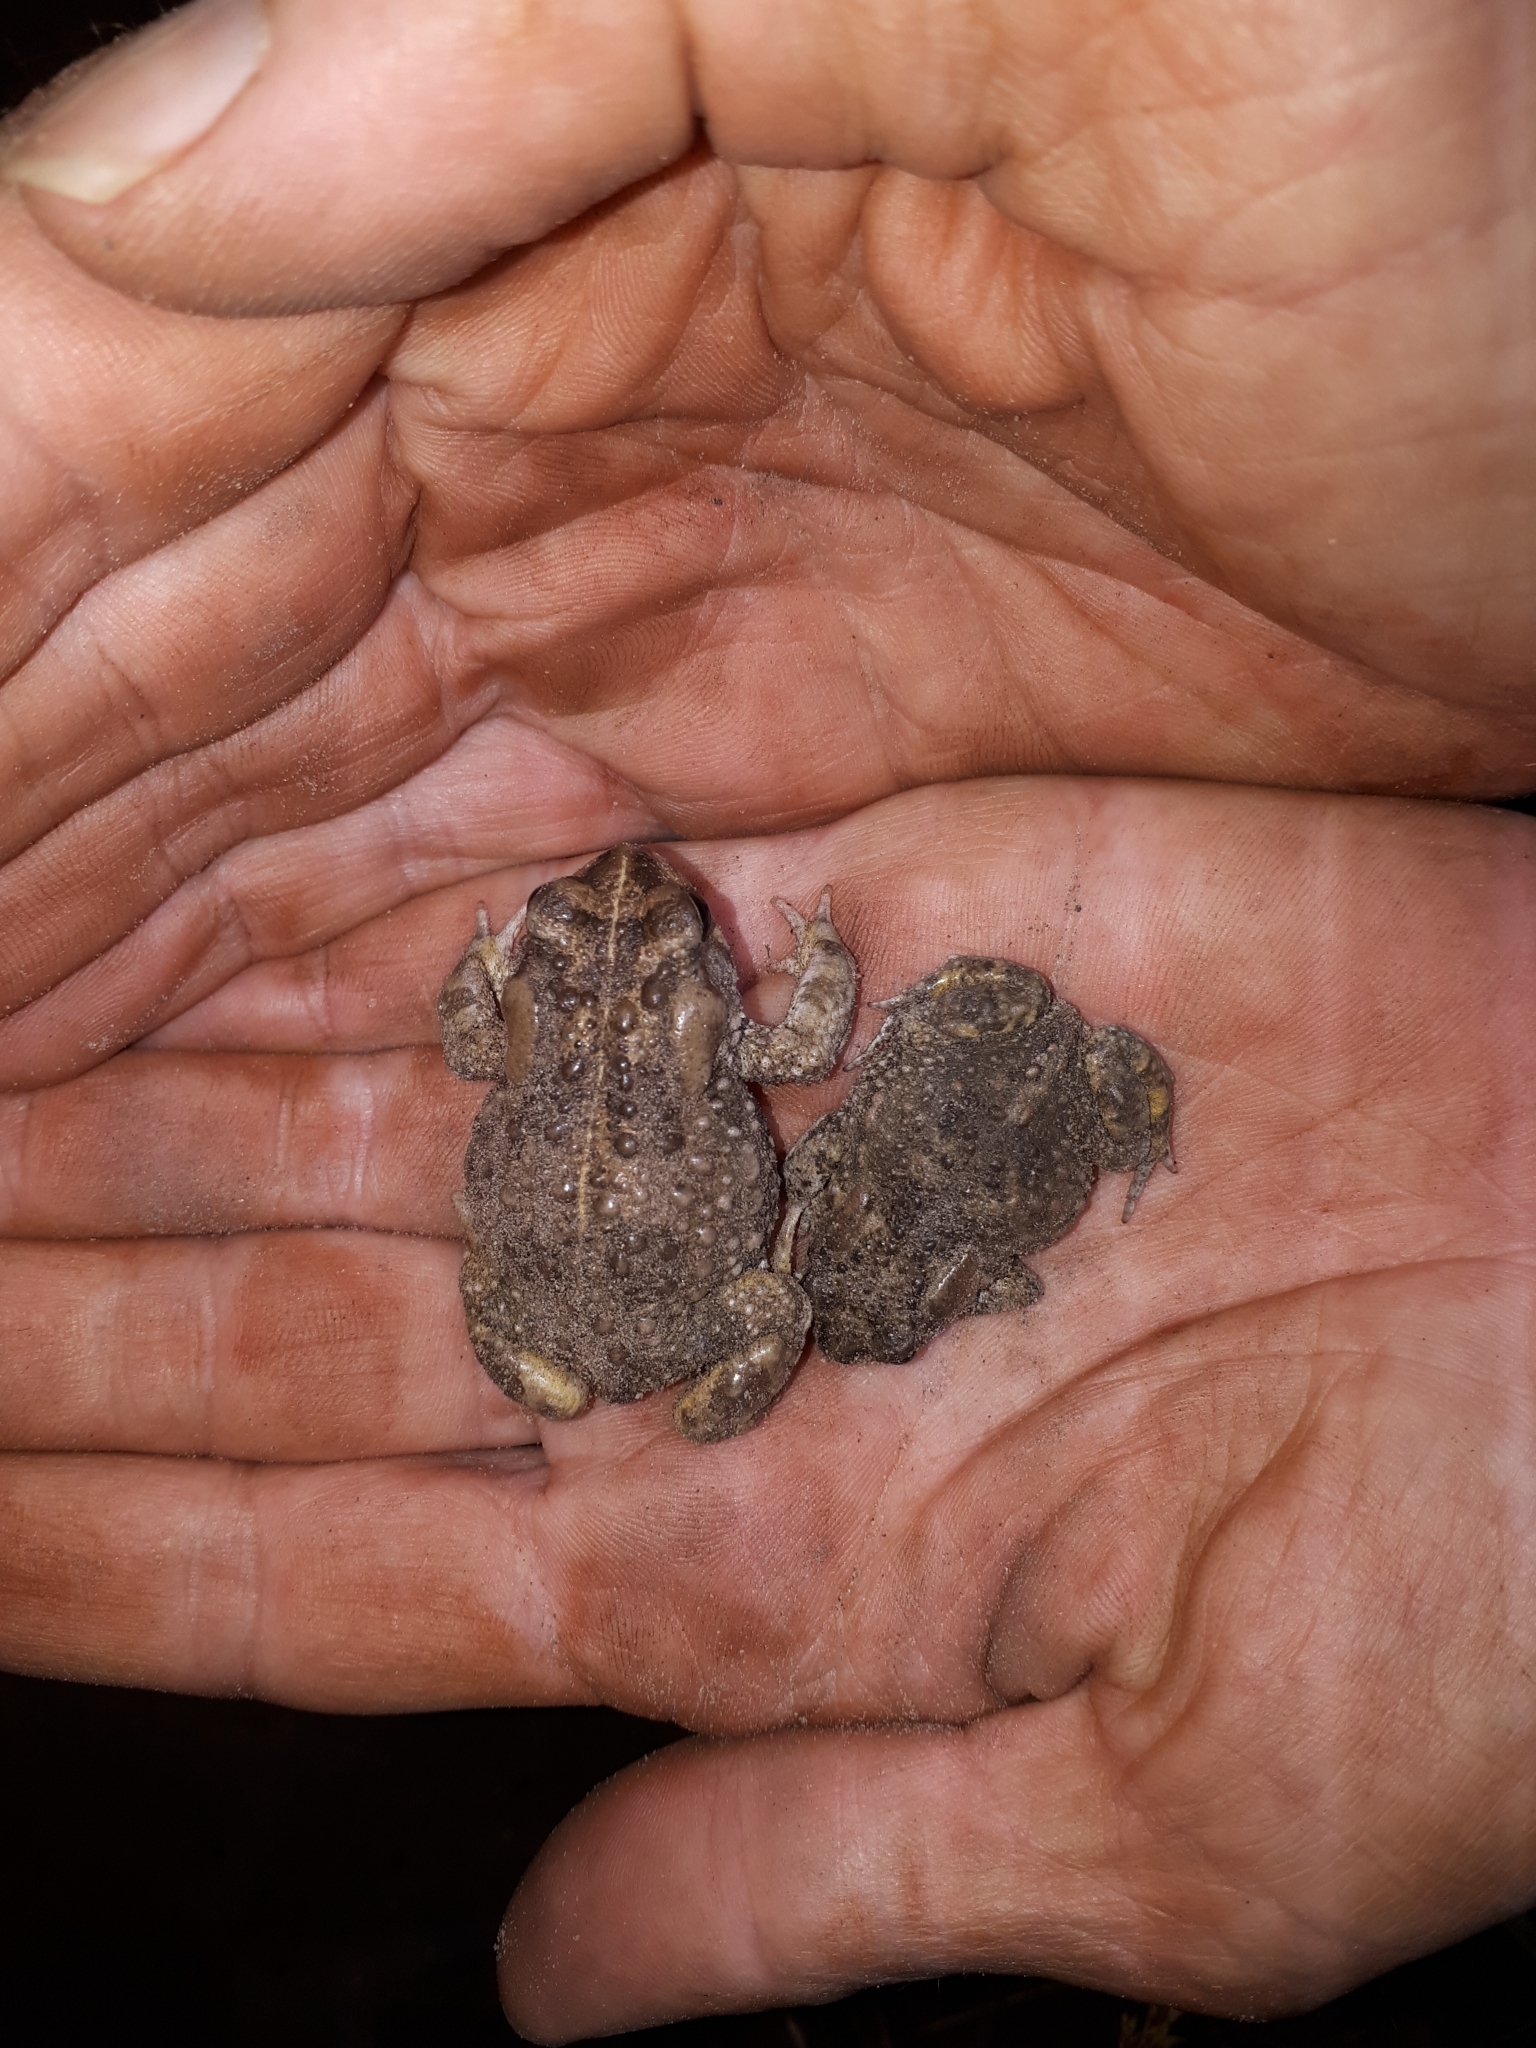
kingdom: Animalia
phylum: Chordata
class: Amphibia
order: Anura
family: Bufonidae
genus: Vandijkophrynus
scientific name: Vandijkophrynus angusticeps
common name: Sand toad
